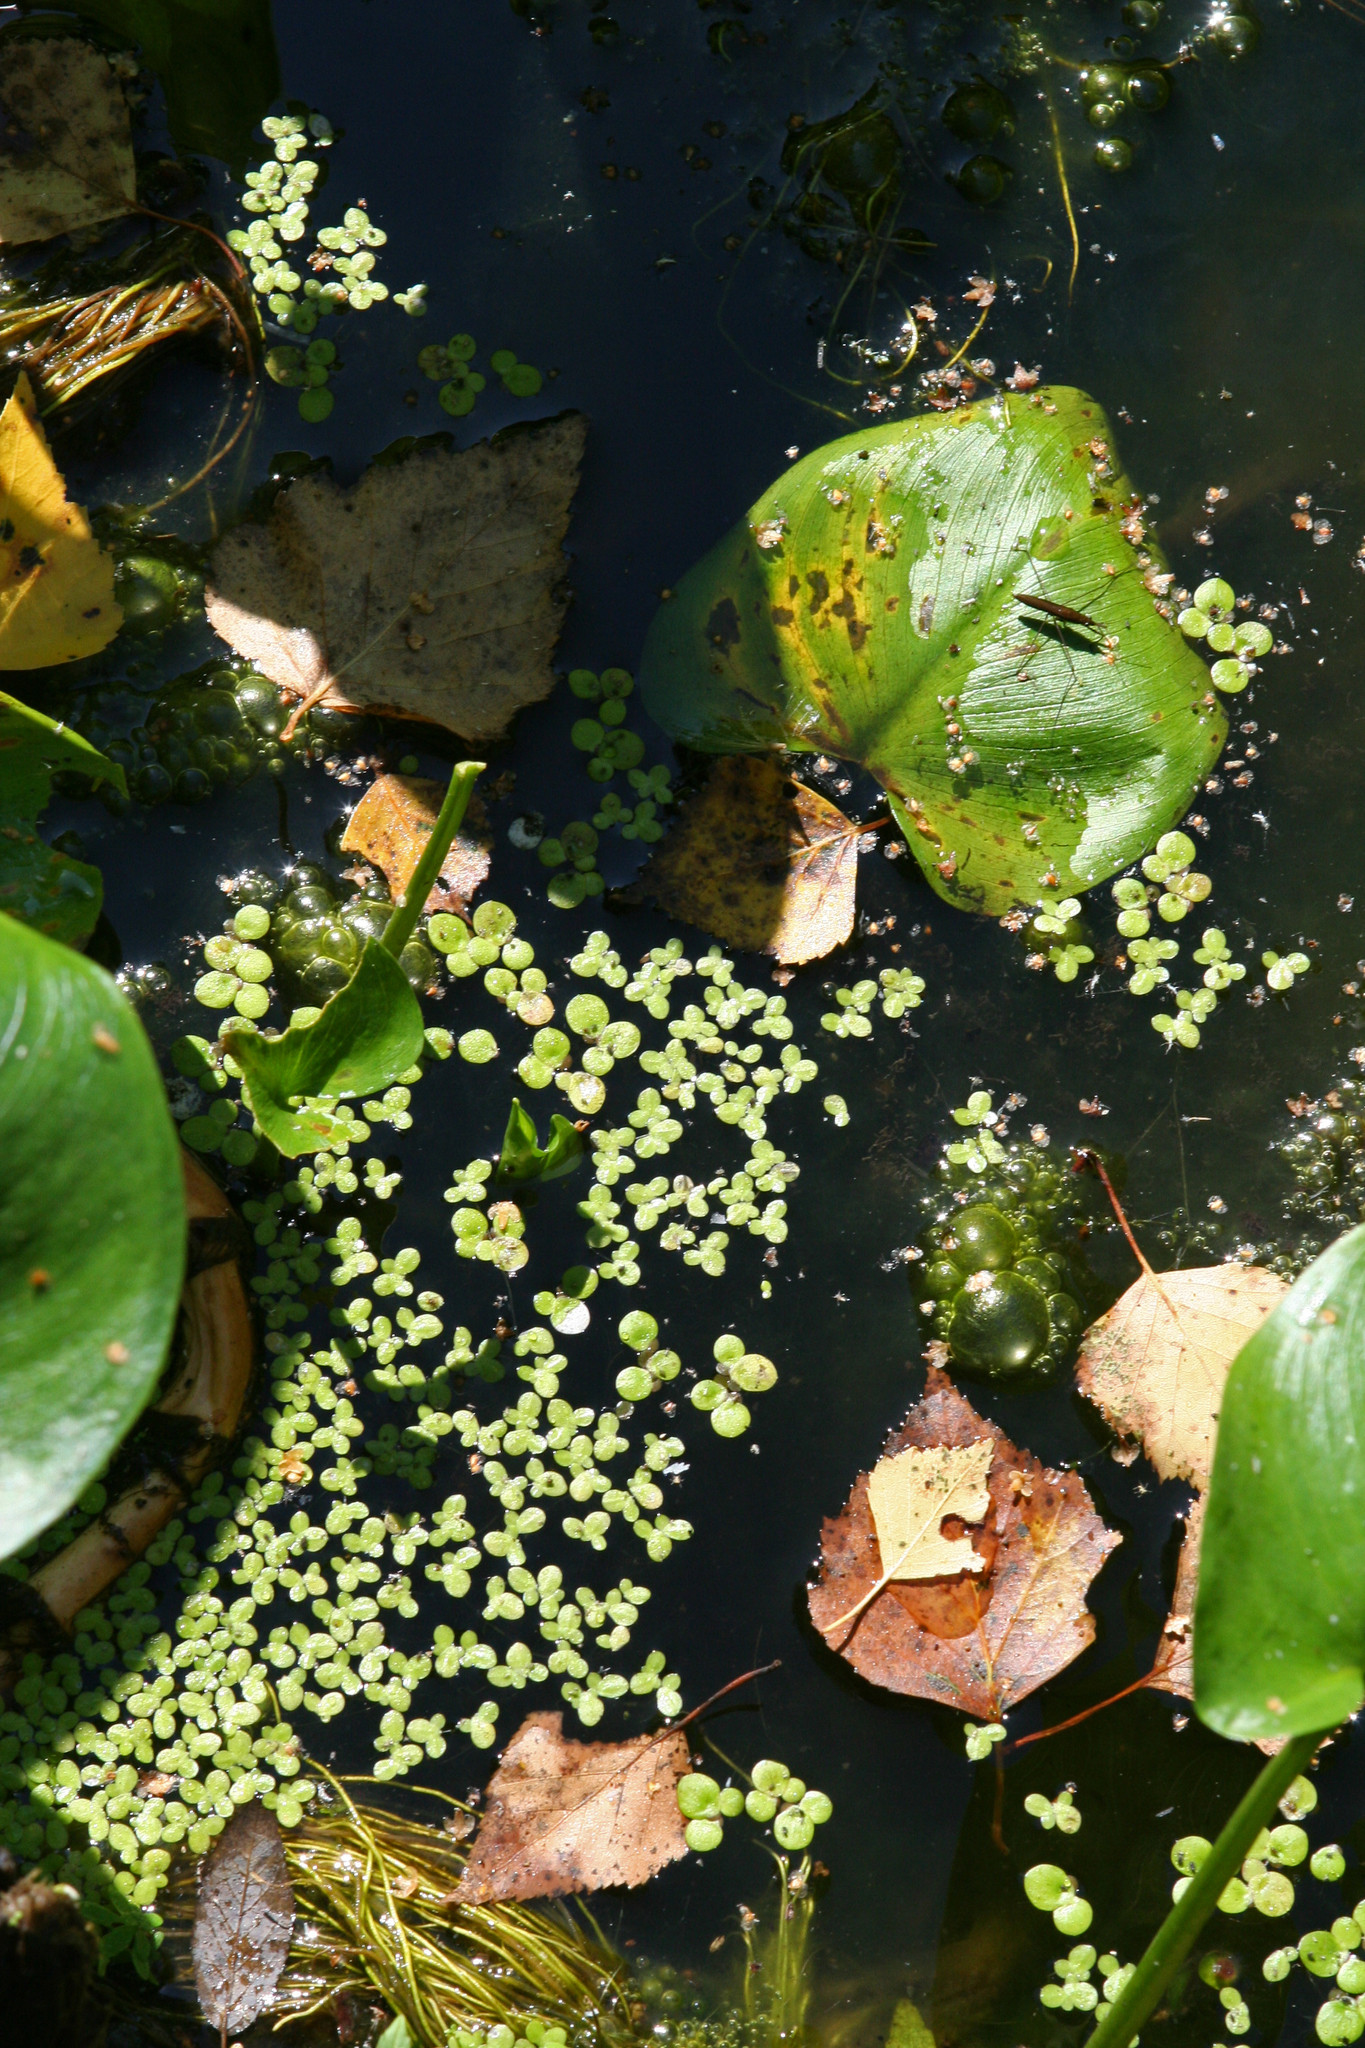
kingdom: Plantae
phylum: Tracheophyta
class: Liliopsida
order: Alismatales
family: Araceae
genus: Spirodela
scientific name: Spirodela polyrhiza
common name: Great duckweed
